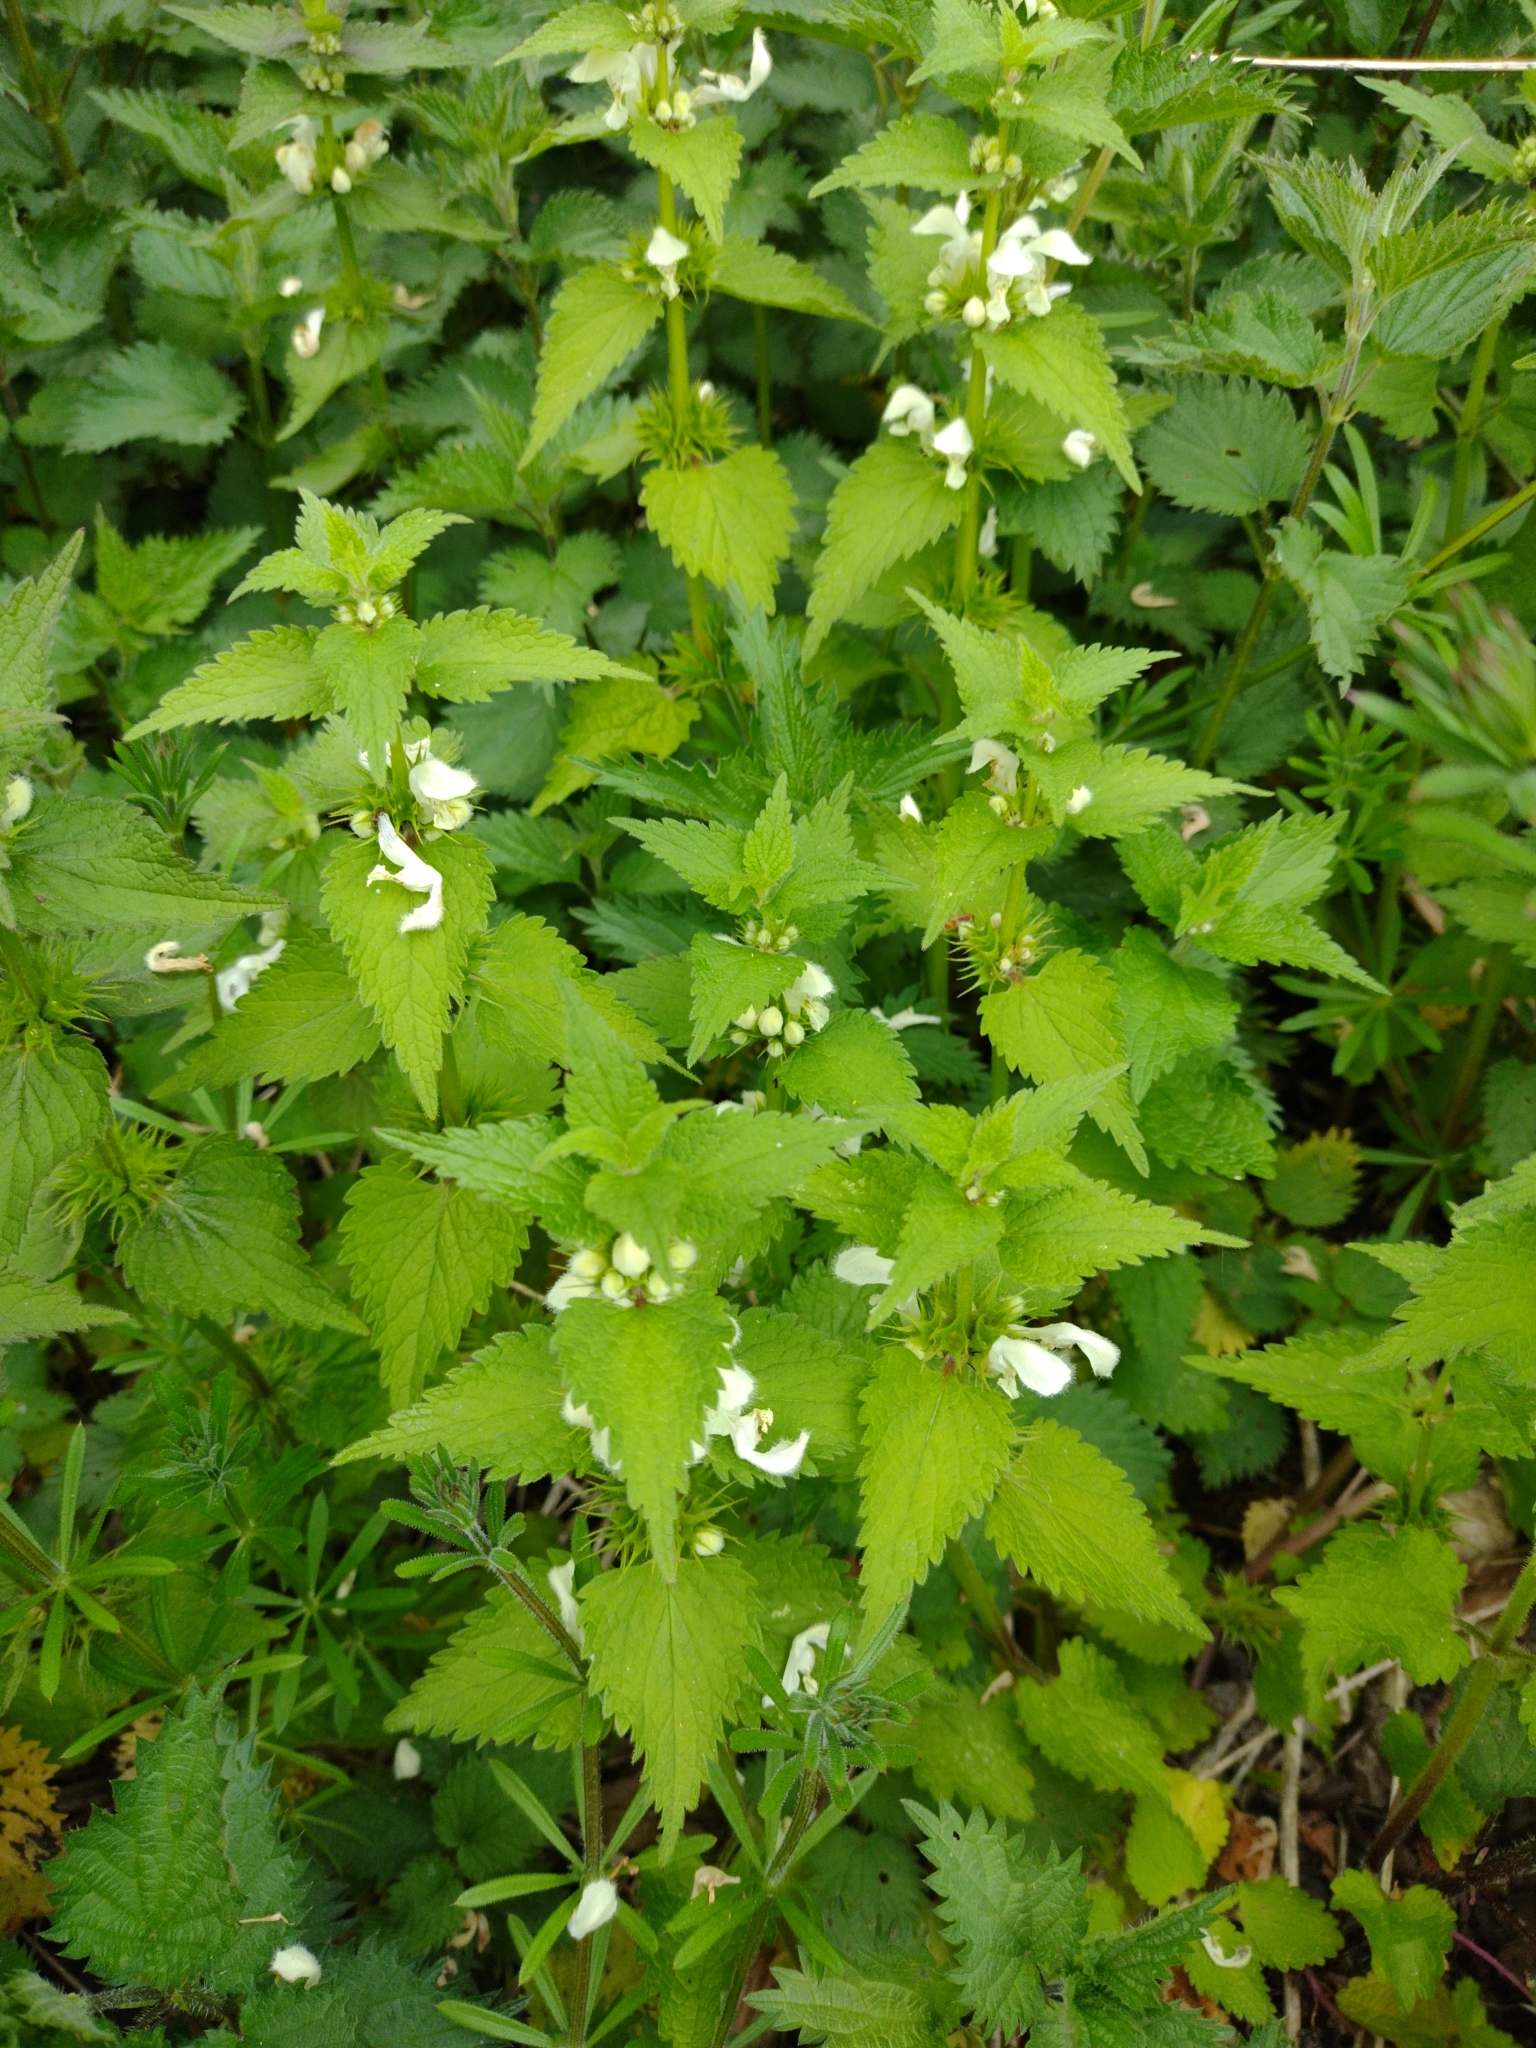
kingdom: Plantae
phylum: Tracheophyta
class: Magnoliopsida
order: Lamiales
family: Lamiaceae
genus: Lamium
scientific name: Lamium album
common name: White dead-nettle
